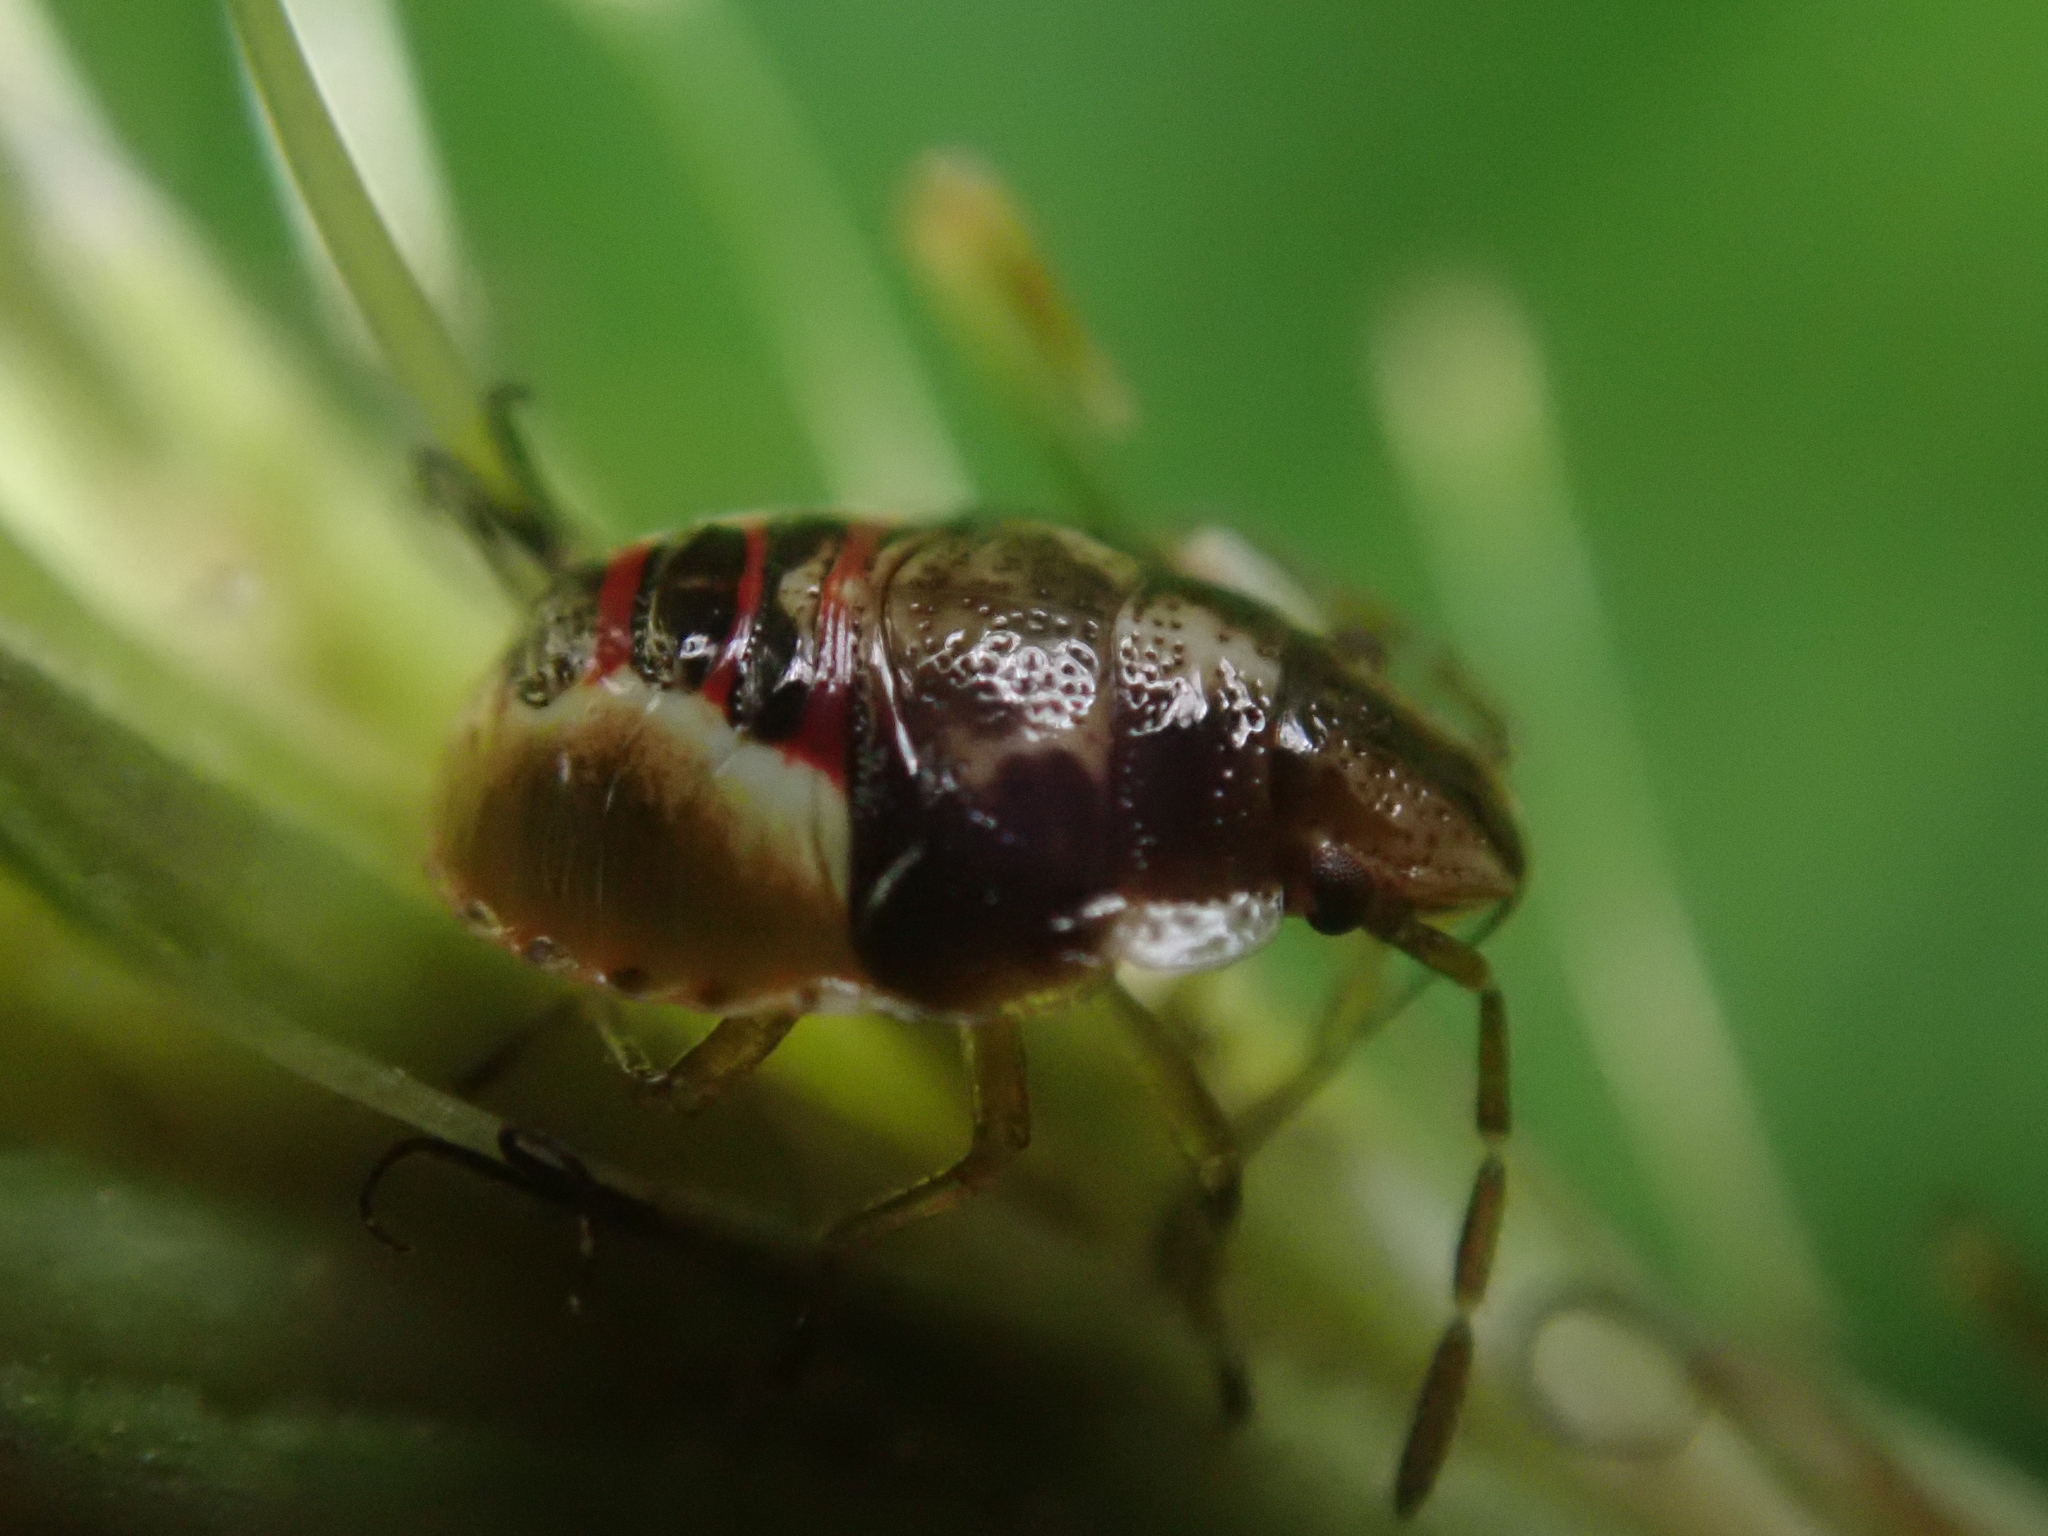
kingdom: Animalia
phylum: Arthropoda
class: Insecta
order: Hemiptera
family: Acanthosomatidae
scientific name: Acanthosomatidae
